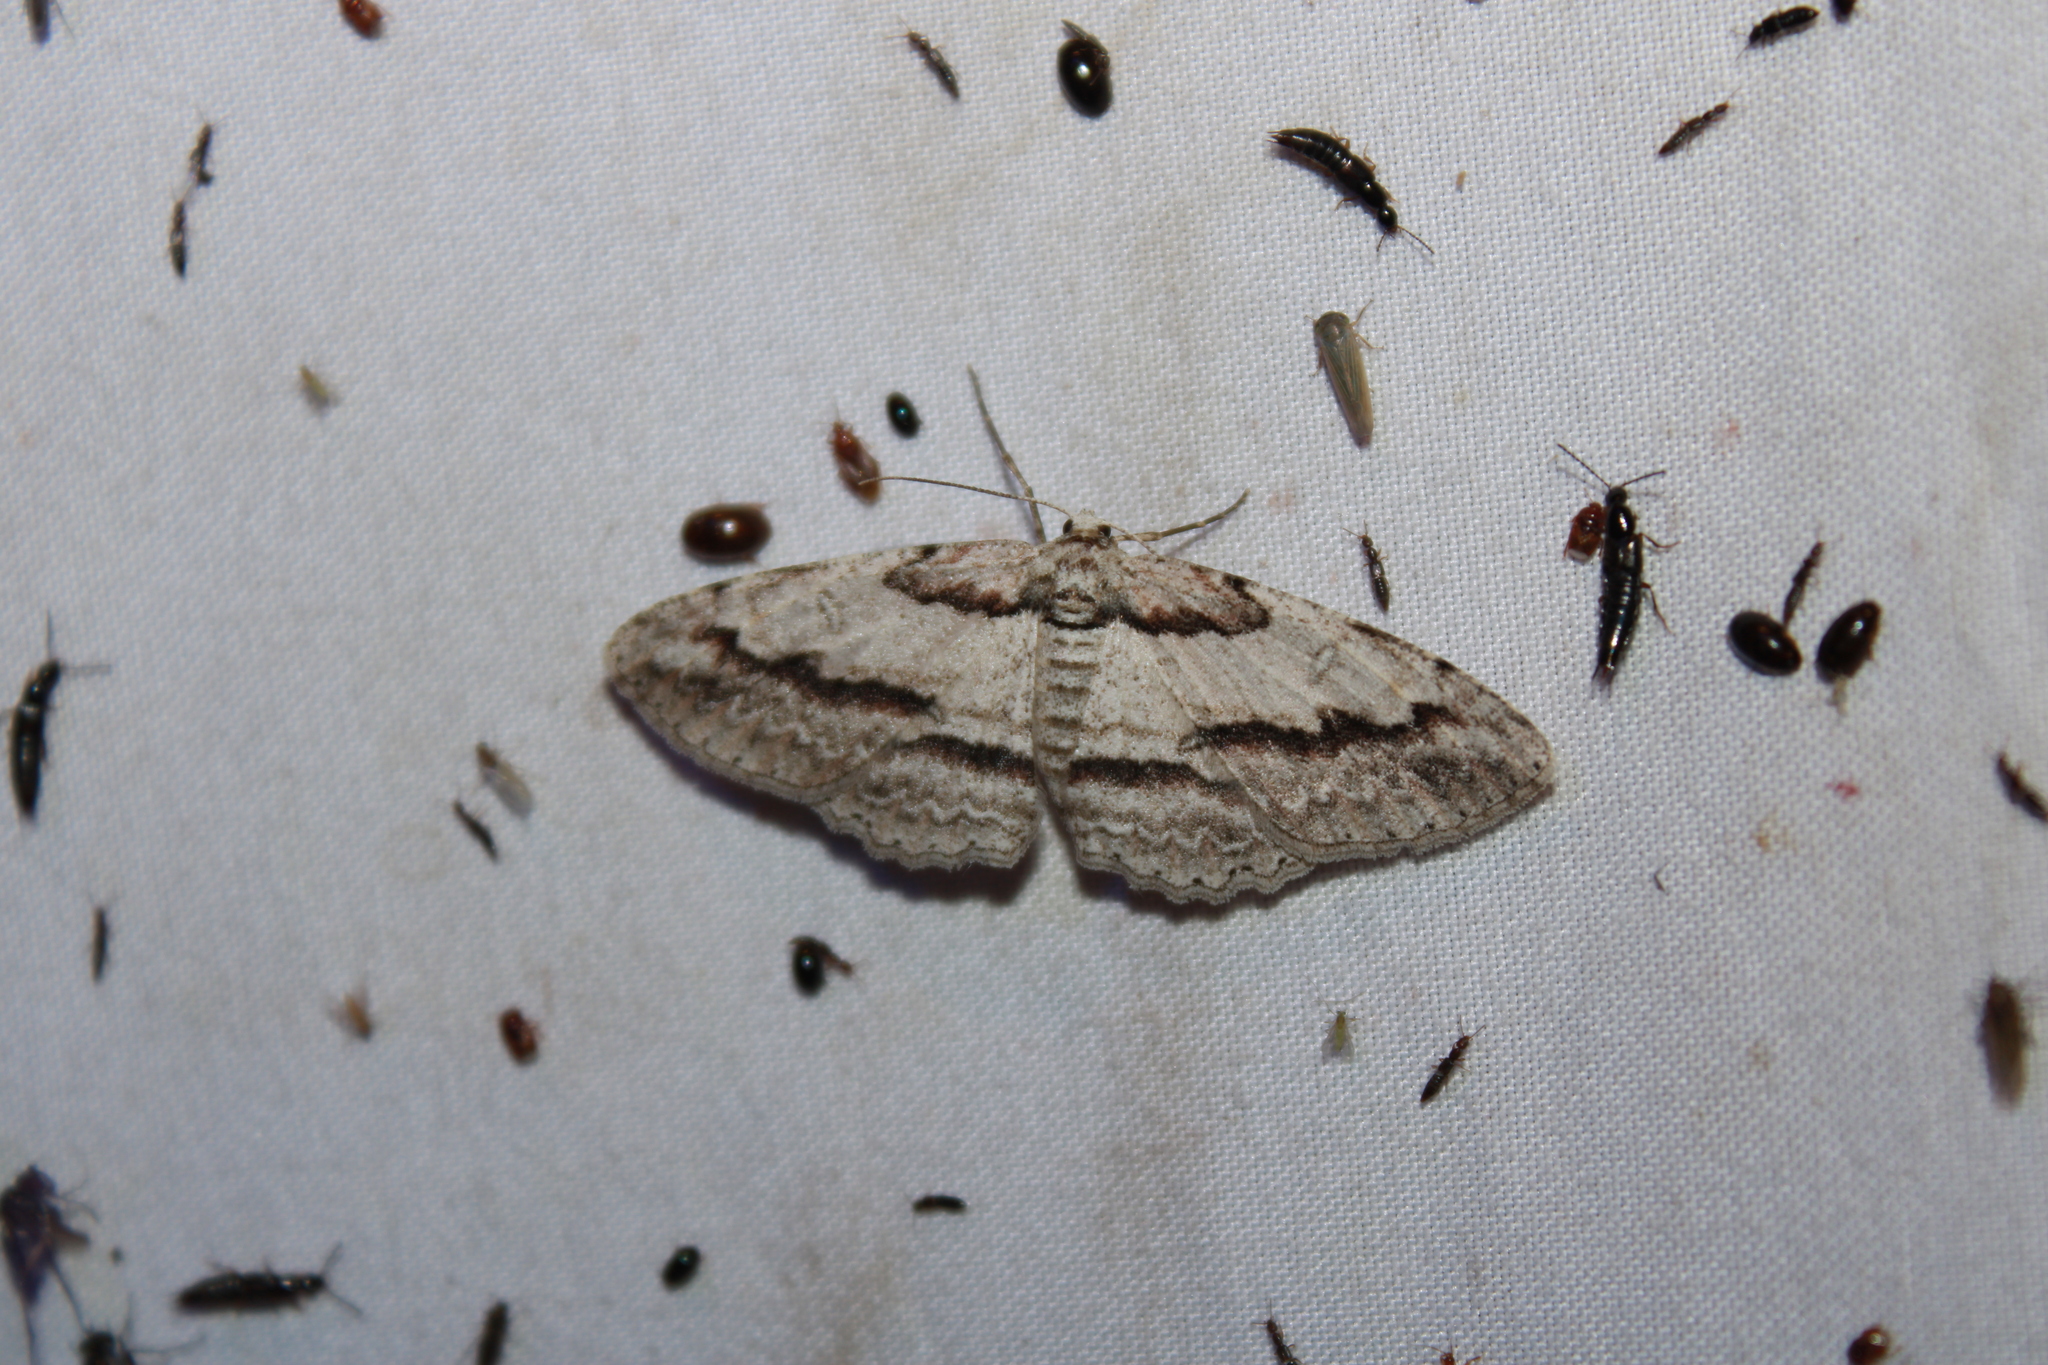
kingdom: Animalia
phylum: Arthropoda
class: Insecta
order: Lepidoptera
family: Geometridae
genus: Iridopsis
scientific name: Iridopsis pergracilis
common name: Cypress looper
